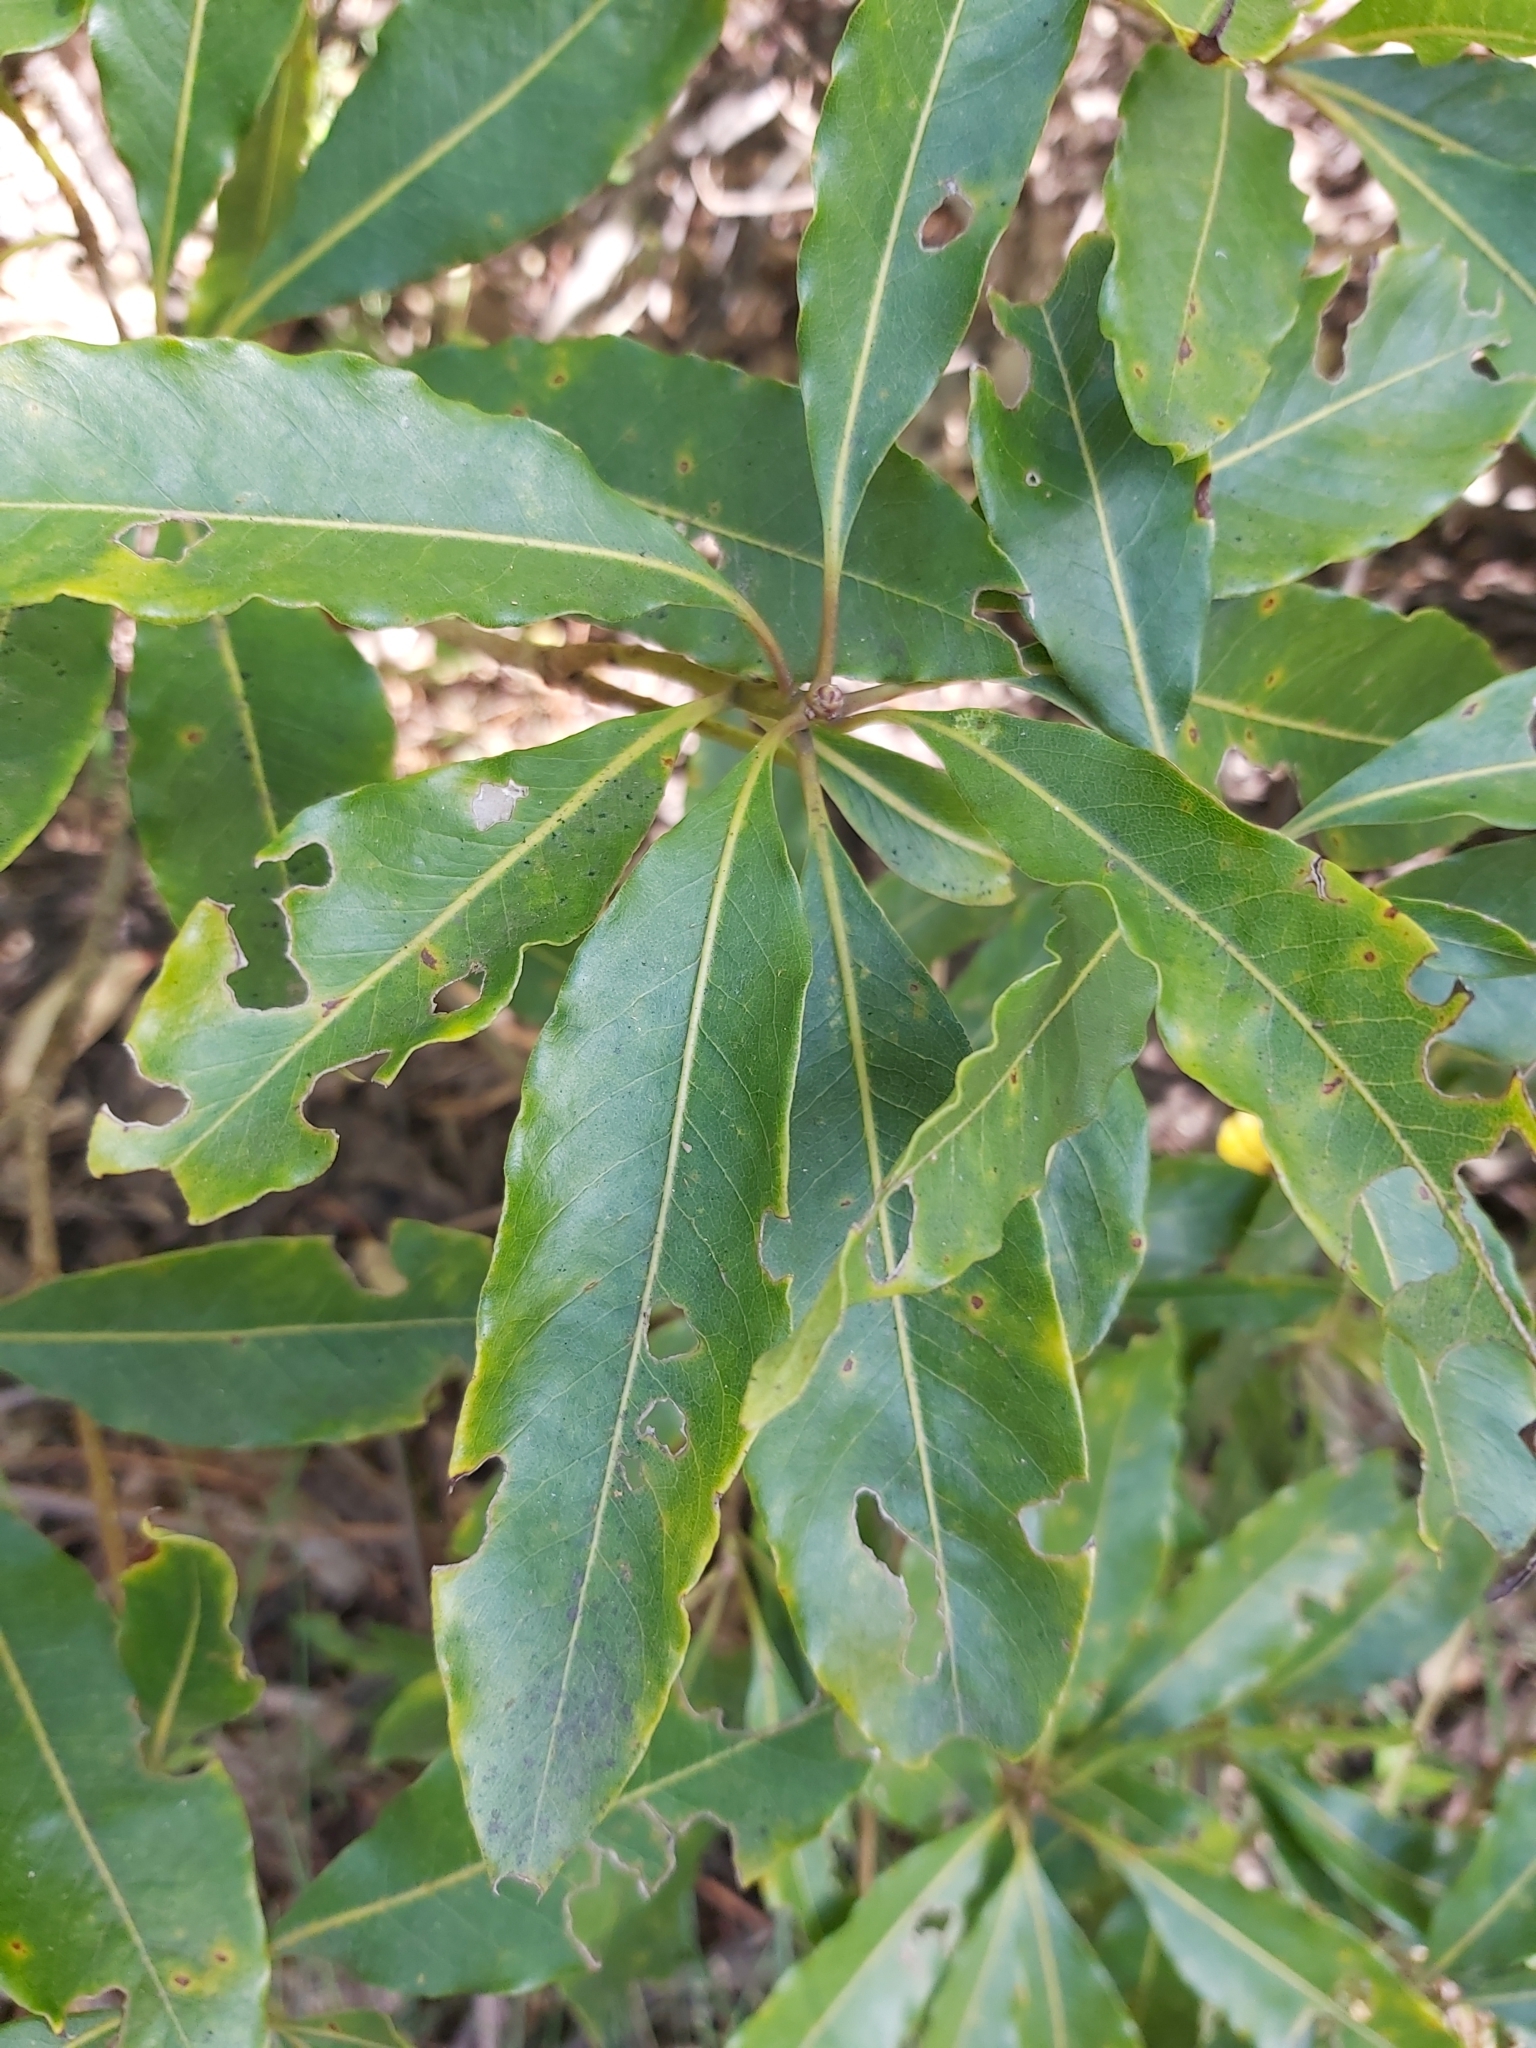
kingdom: Plantae
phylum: Tracheophyta
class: Magnoliopsida
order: Apiales
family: Pittosporaceae
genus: Pittosporum
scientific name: Pittosporum undulatum
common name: Australian cheesewood
